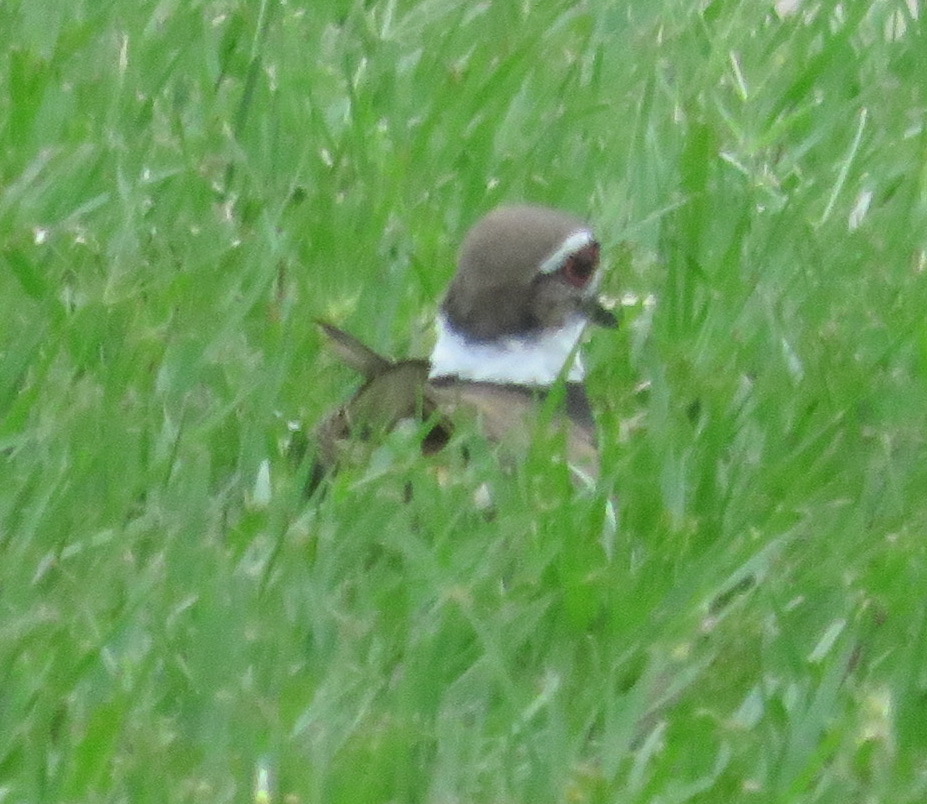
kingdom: Animalia
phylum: Chordata
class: Aves
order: Charadriiformes
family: Charadriidae
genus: Charadrius
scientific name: Charadrius vociferus
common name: Killdeer
